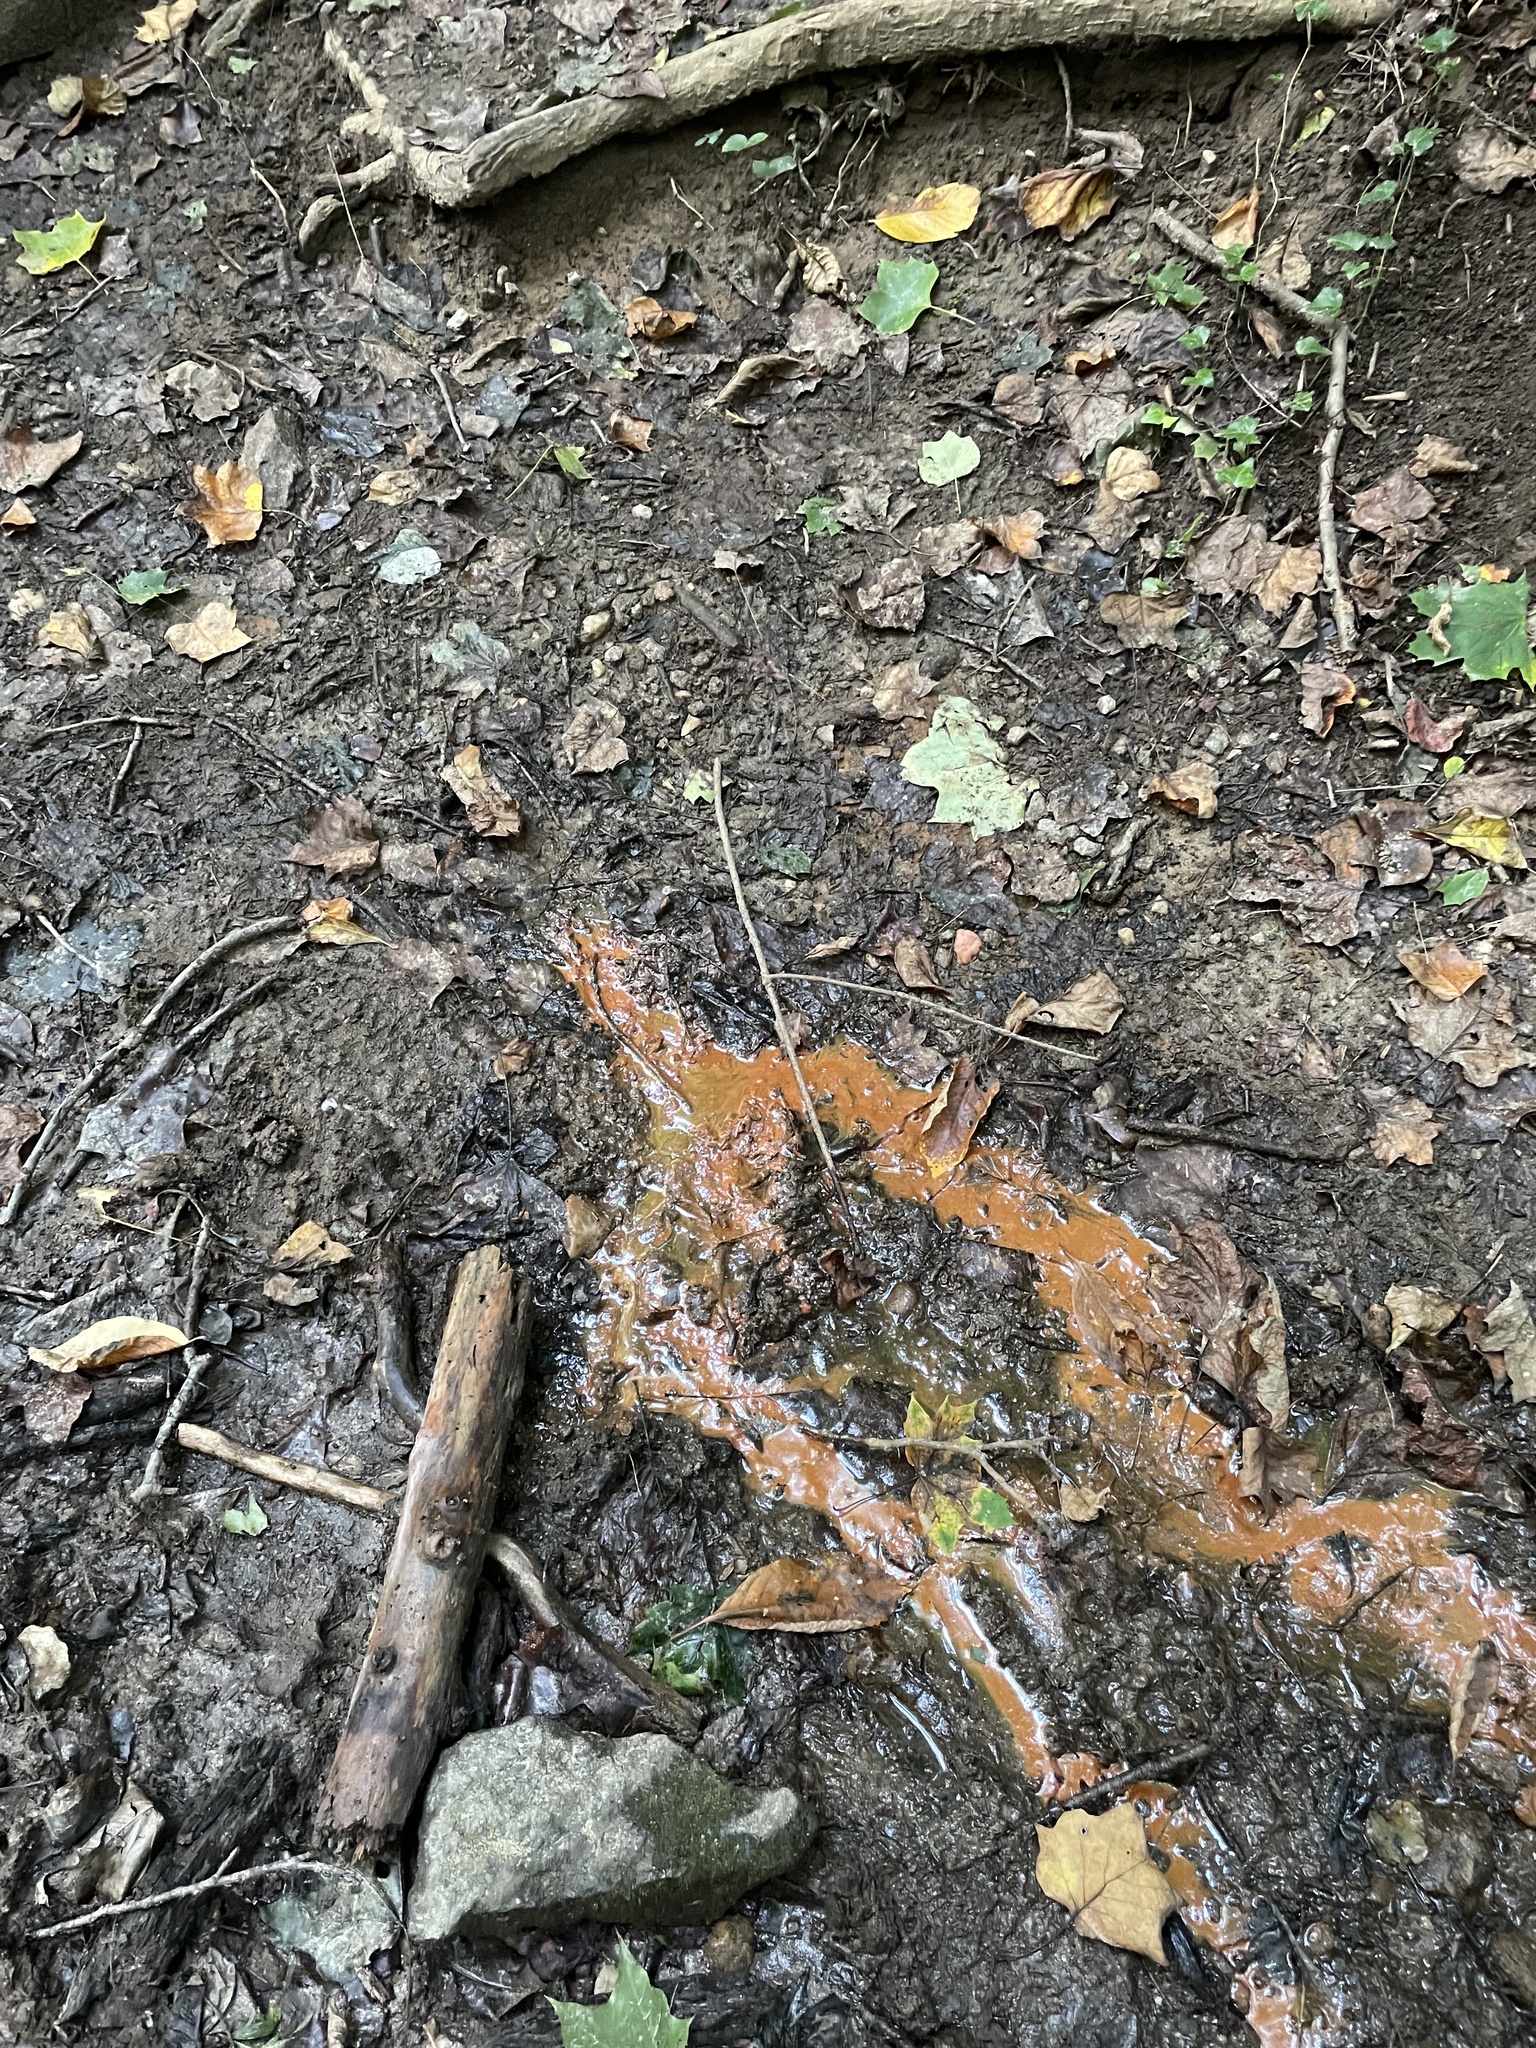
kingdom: Plantae
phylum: Tracheophyta
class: Magnoliopsida
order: Magnoliales
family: Magnoliaceae
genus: Liriodendron
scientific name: Liriodendron tulipifera
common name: Tulip tree
